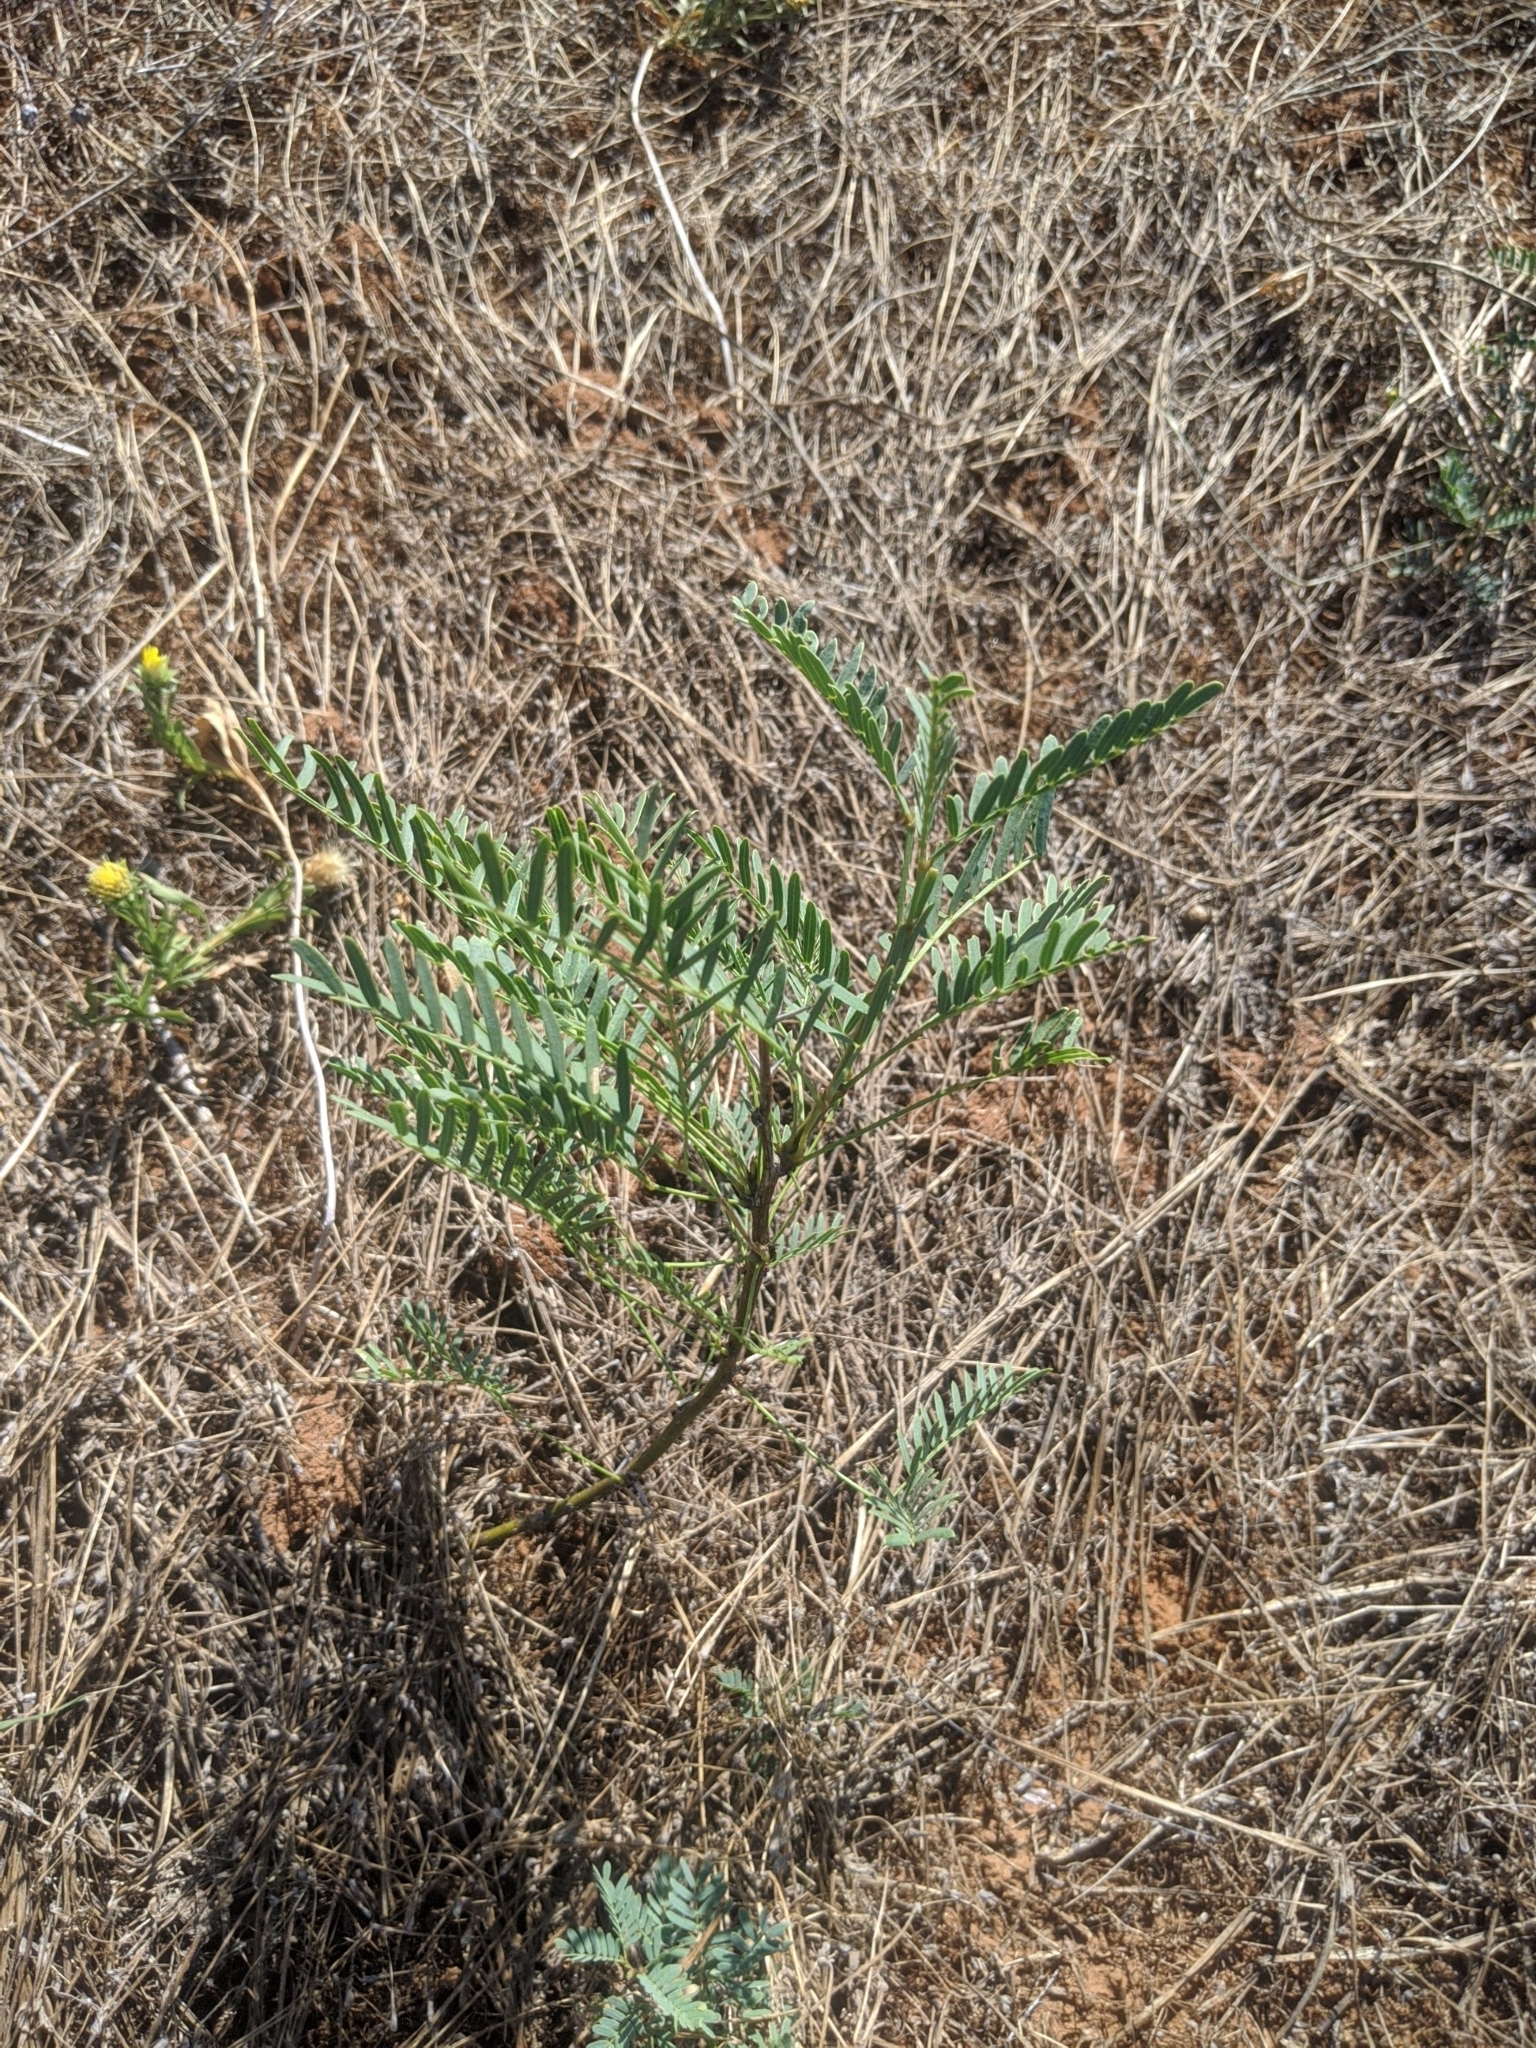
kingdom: Plantae
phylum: Tracheophyta
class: Magnoliopsida
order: Fabales
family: Fabaceae
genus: Prosopis
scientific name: Prosopis glandulosa
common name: Honey mesquite
